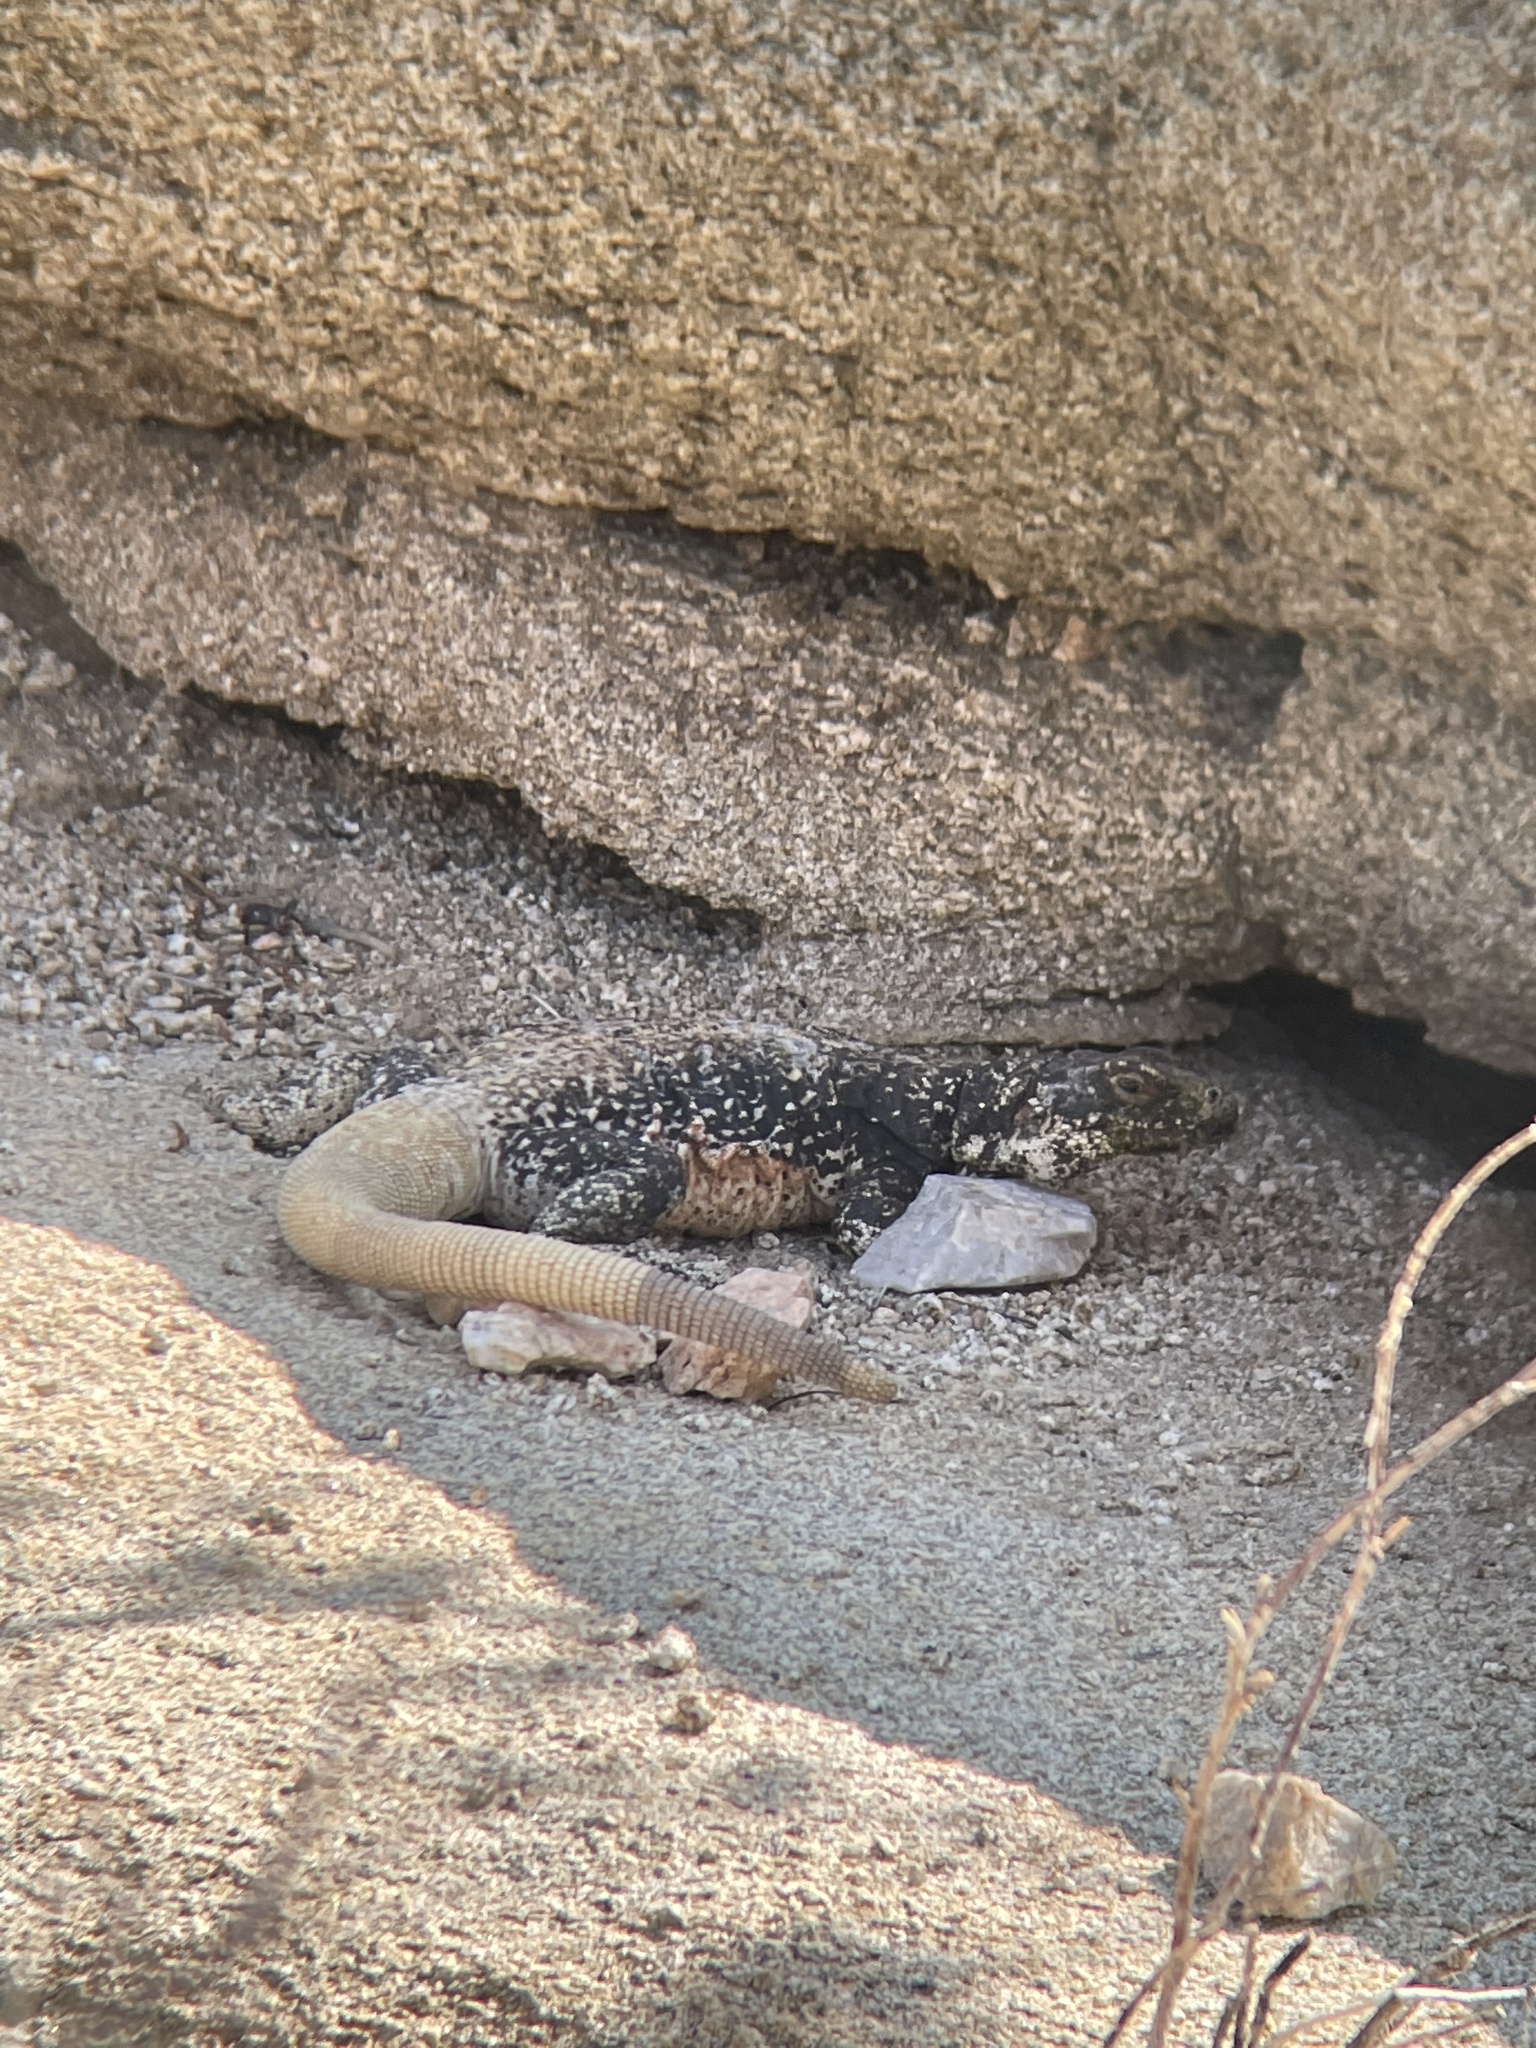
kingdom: Animalia
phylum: Chordata
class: Squamata
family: Iguanidae
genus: Sauromalus
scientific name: Sauromalus ater
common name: Northern chuckwalla
